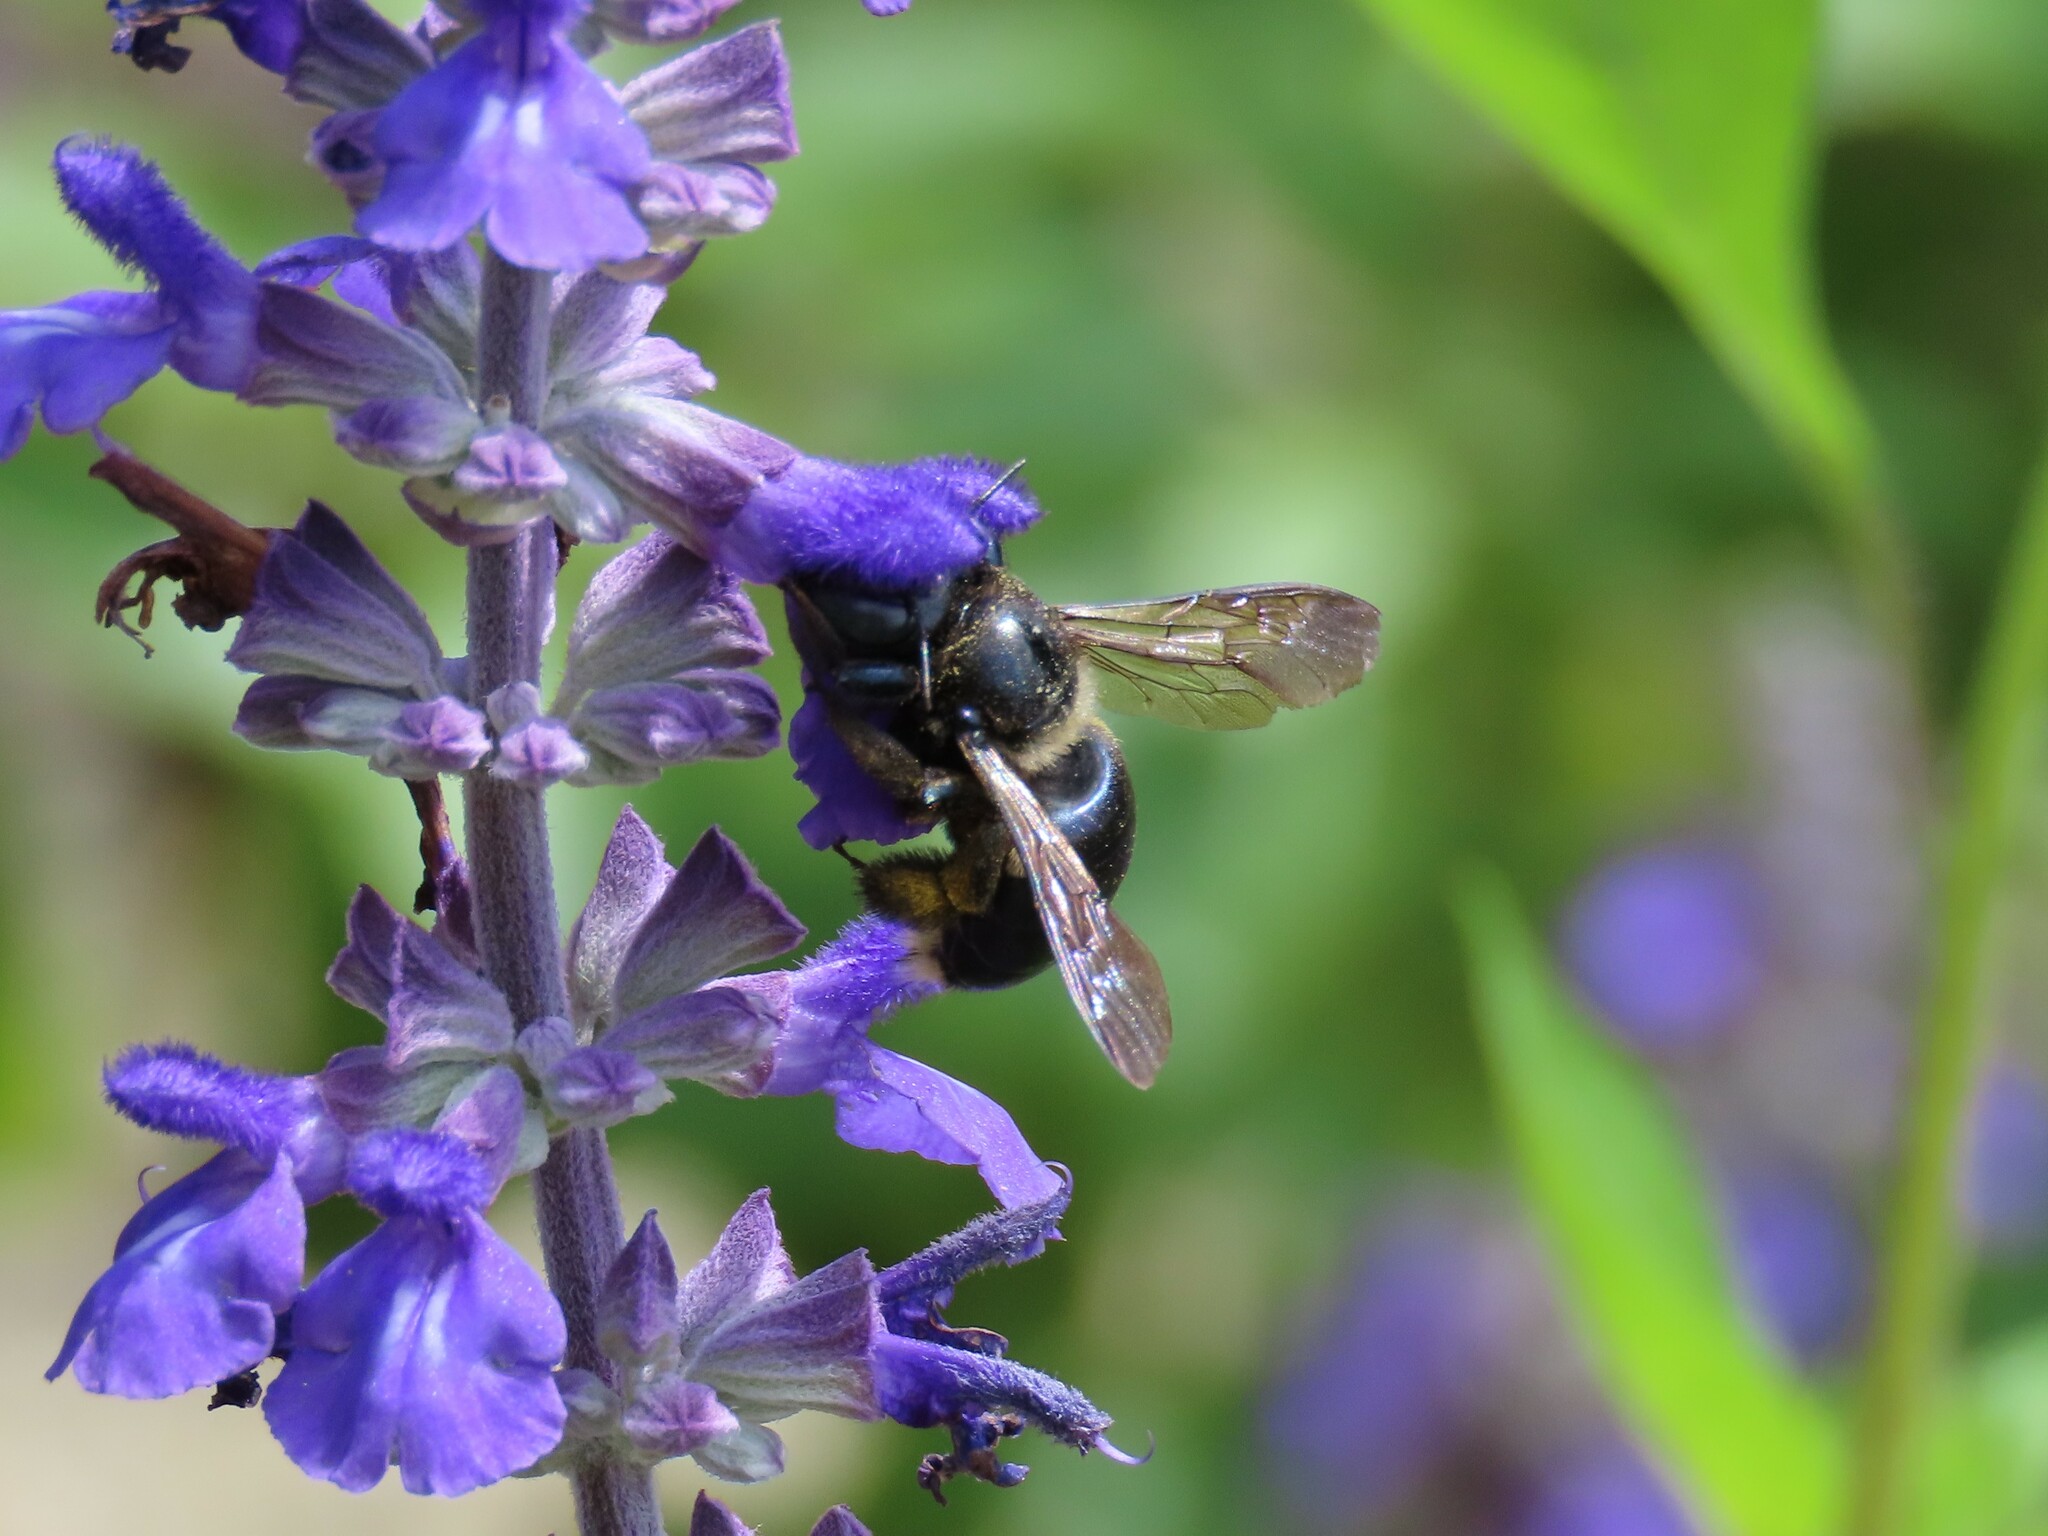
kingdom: Animalia
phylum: Arthropoda
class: Insecta
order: Hymenoptera
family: Apidae
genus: Xylocopa
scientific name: Xylocopa micans
